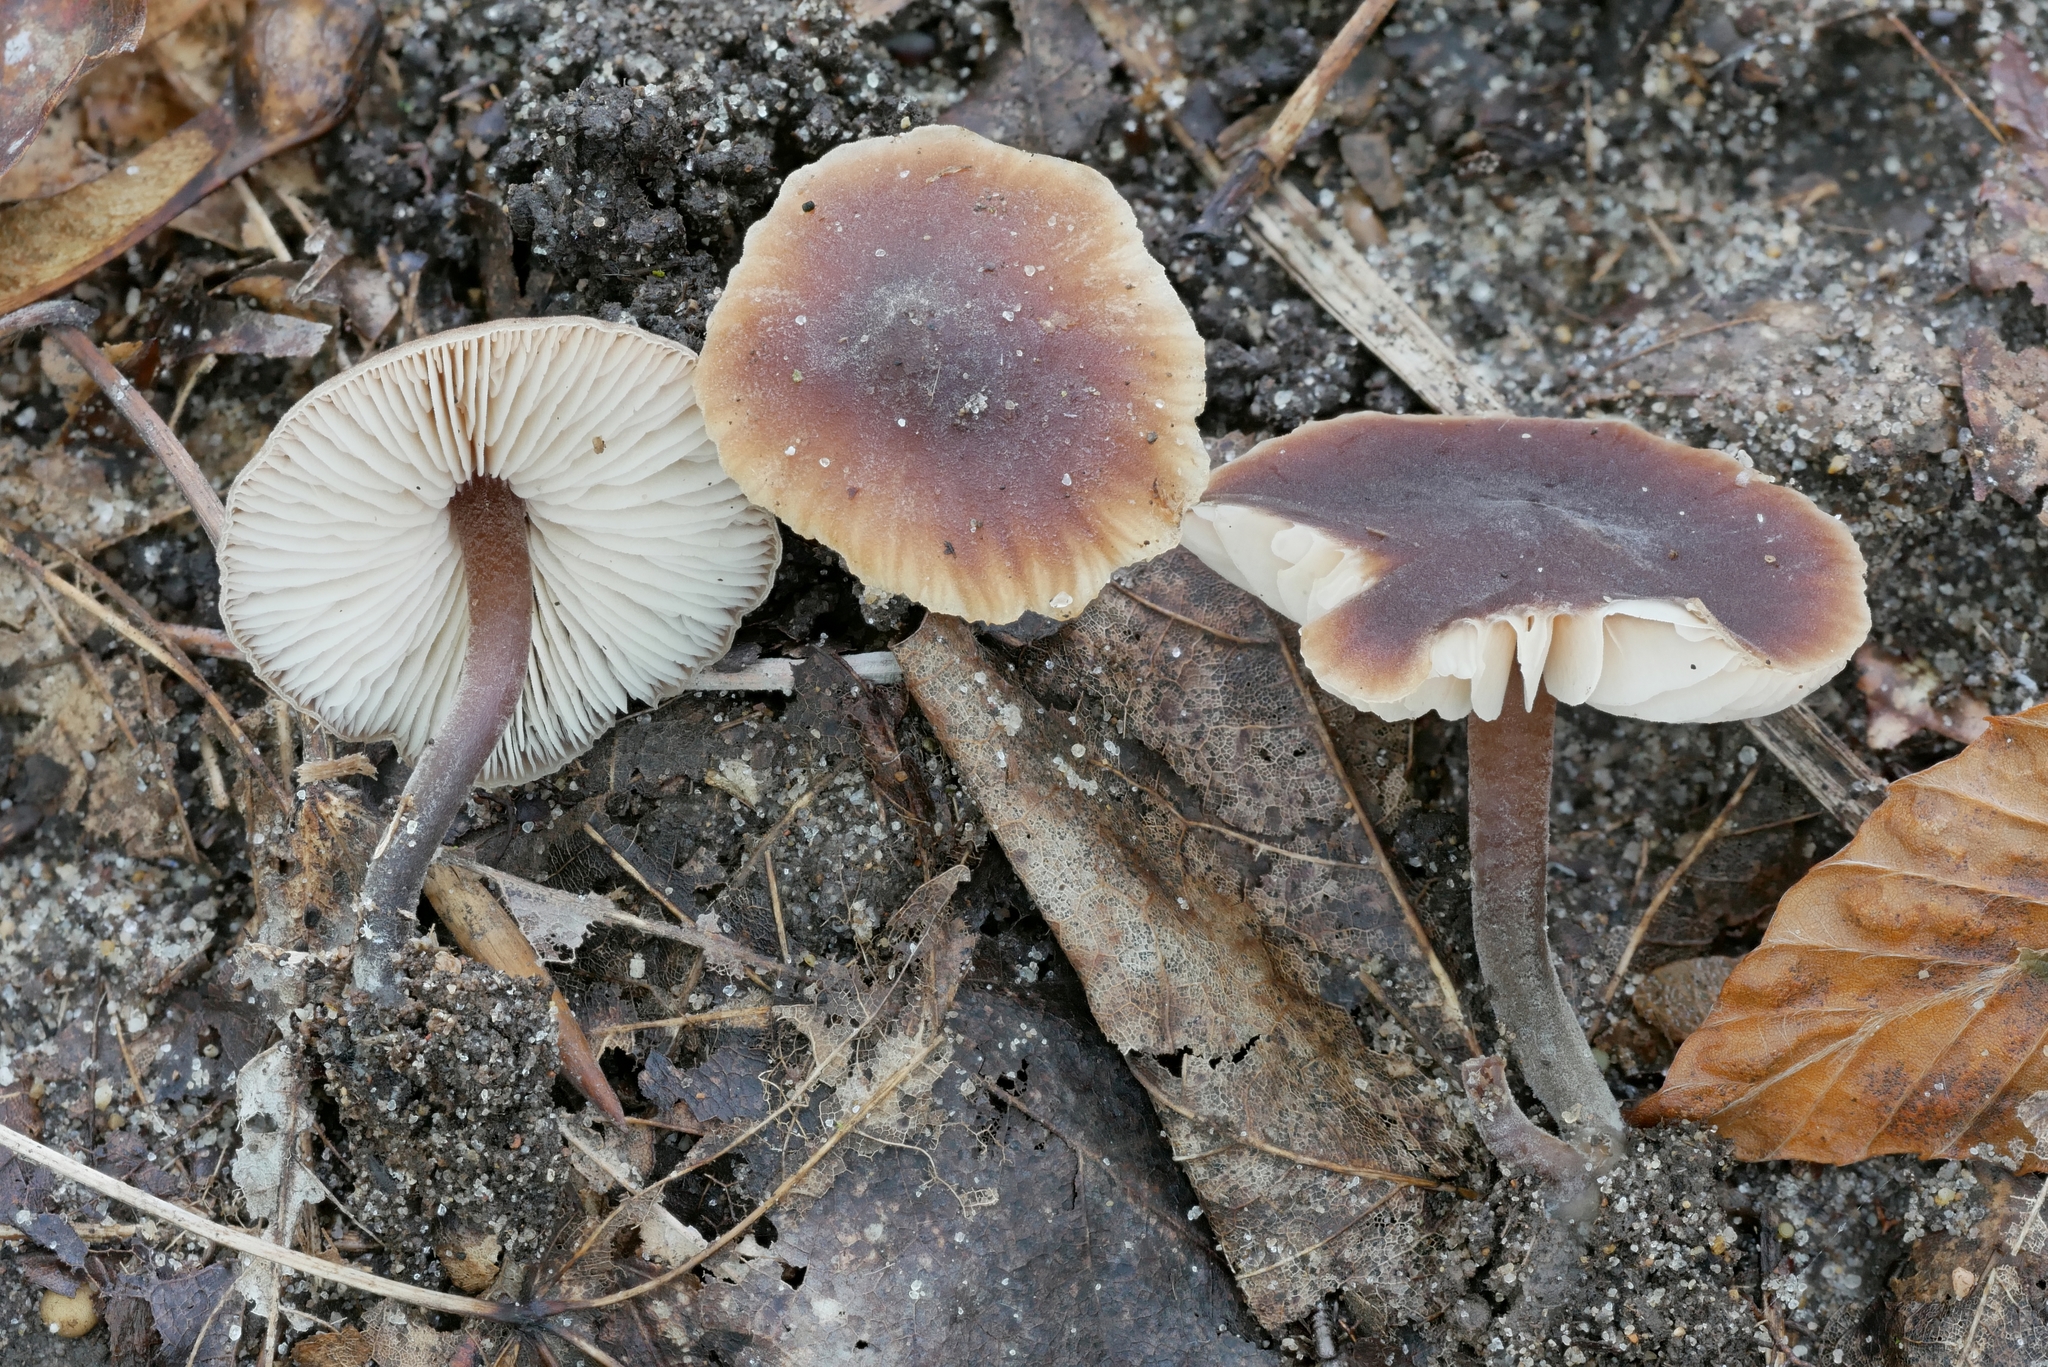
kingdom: Fungi
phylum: Basidiomycota
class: Agaricomycetes
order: Agaricales
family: Macrocystidiaceae
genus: Macrocystidia
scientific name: Macrocystidia cucumis
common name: Cucumber cap
